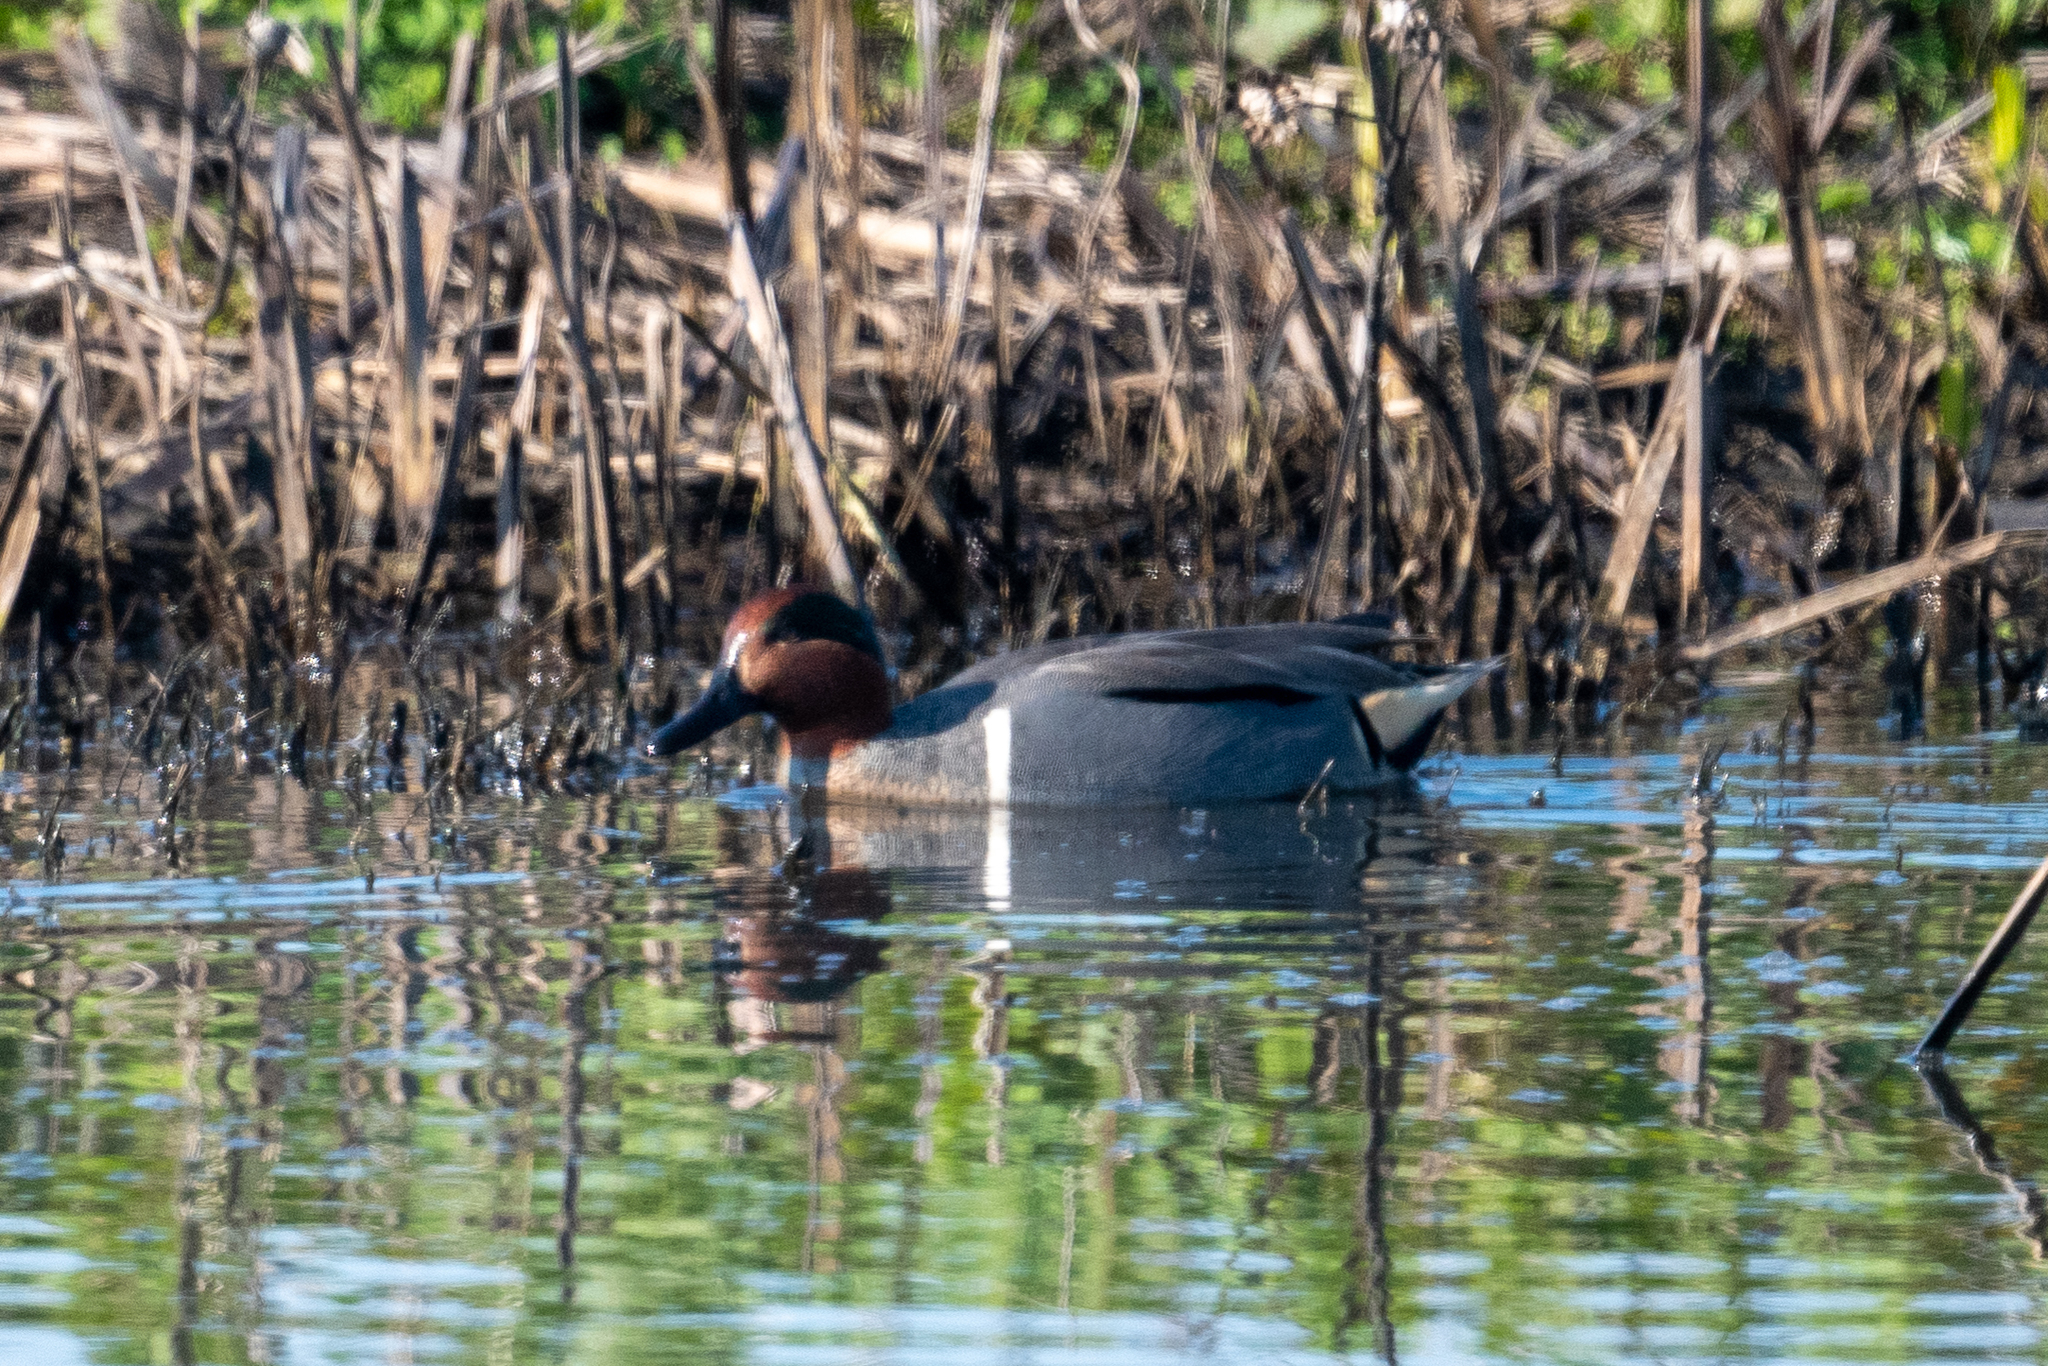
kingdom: Animalia
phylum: Chordata
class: Aves
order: Anseriformes
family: Anatidae
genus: Anas
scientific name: Anas crecca
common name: Eurasian teal
